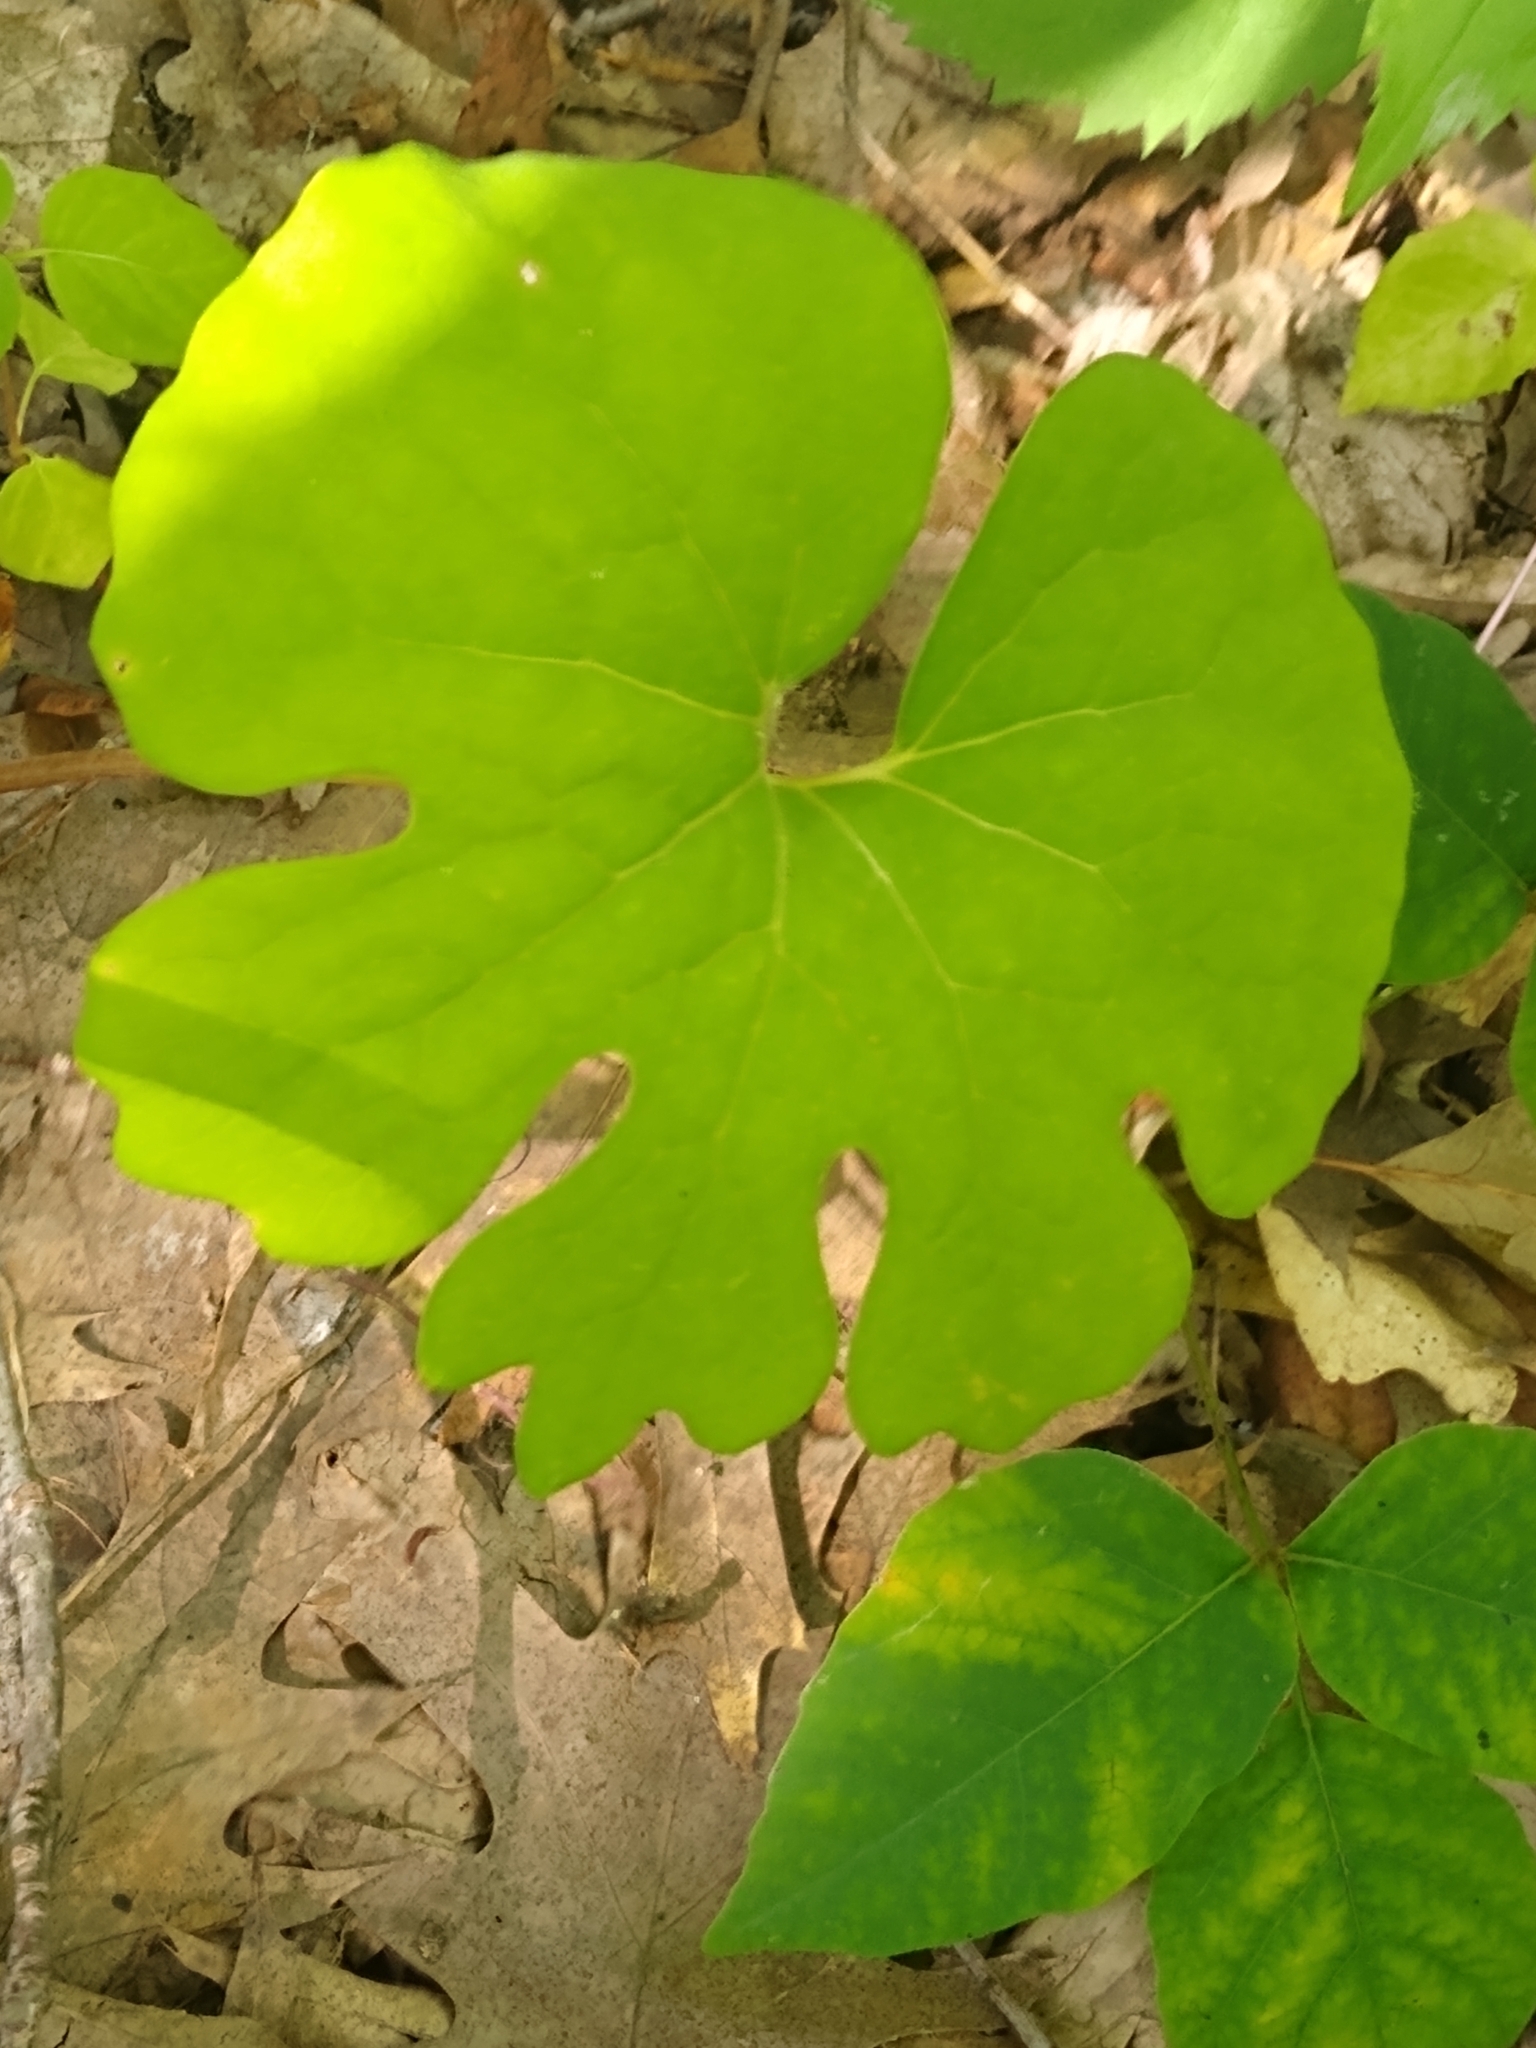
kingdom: Plantae
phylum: Tracheophyta
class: Magnoliopsida
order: Ranunculales
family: Papaveraceae
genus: Sanguinaria
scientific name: Sanguinaria canadensis
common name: Bloodroot
